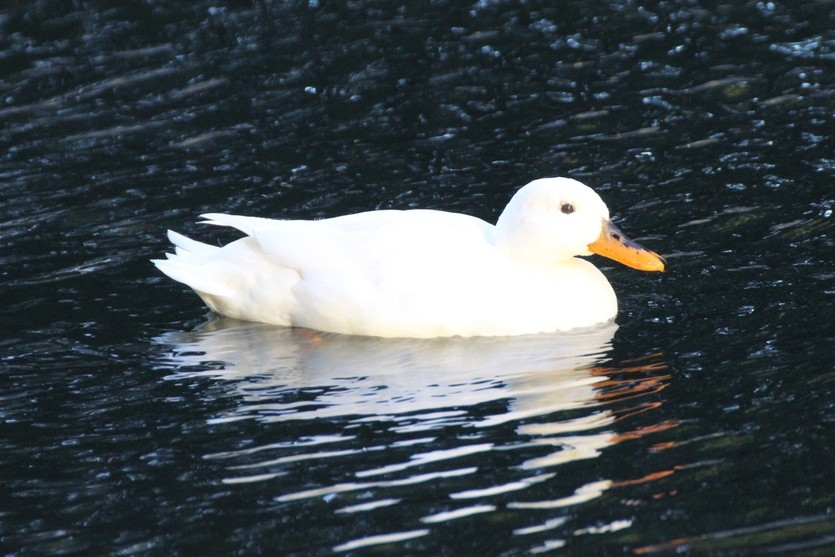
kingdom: Animalia
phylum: Chordata
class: Aves
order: Anseriformes
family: Anatidae
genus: Anas
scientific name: Anas platyrhynchos
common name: Mallard
